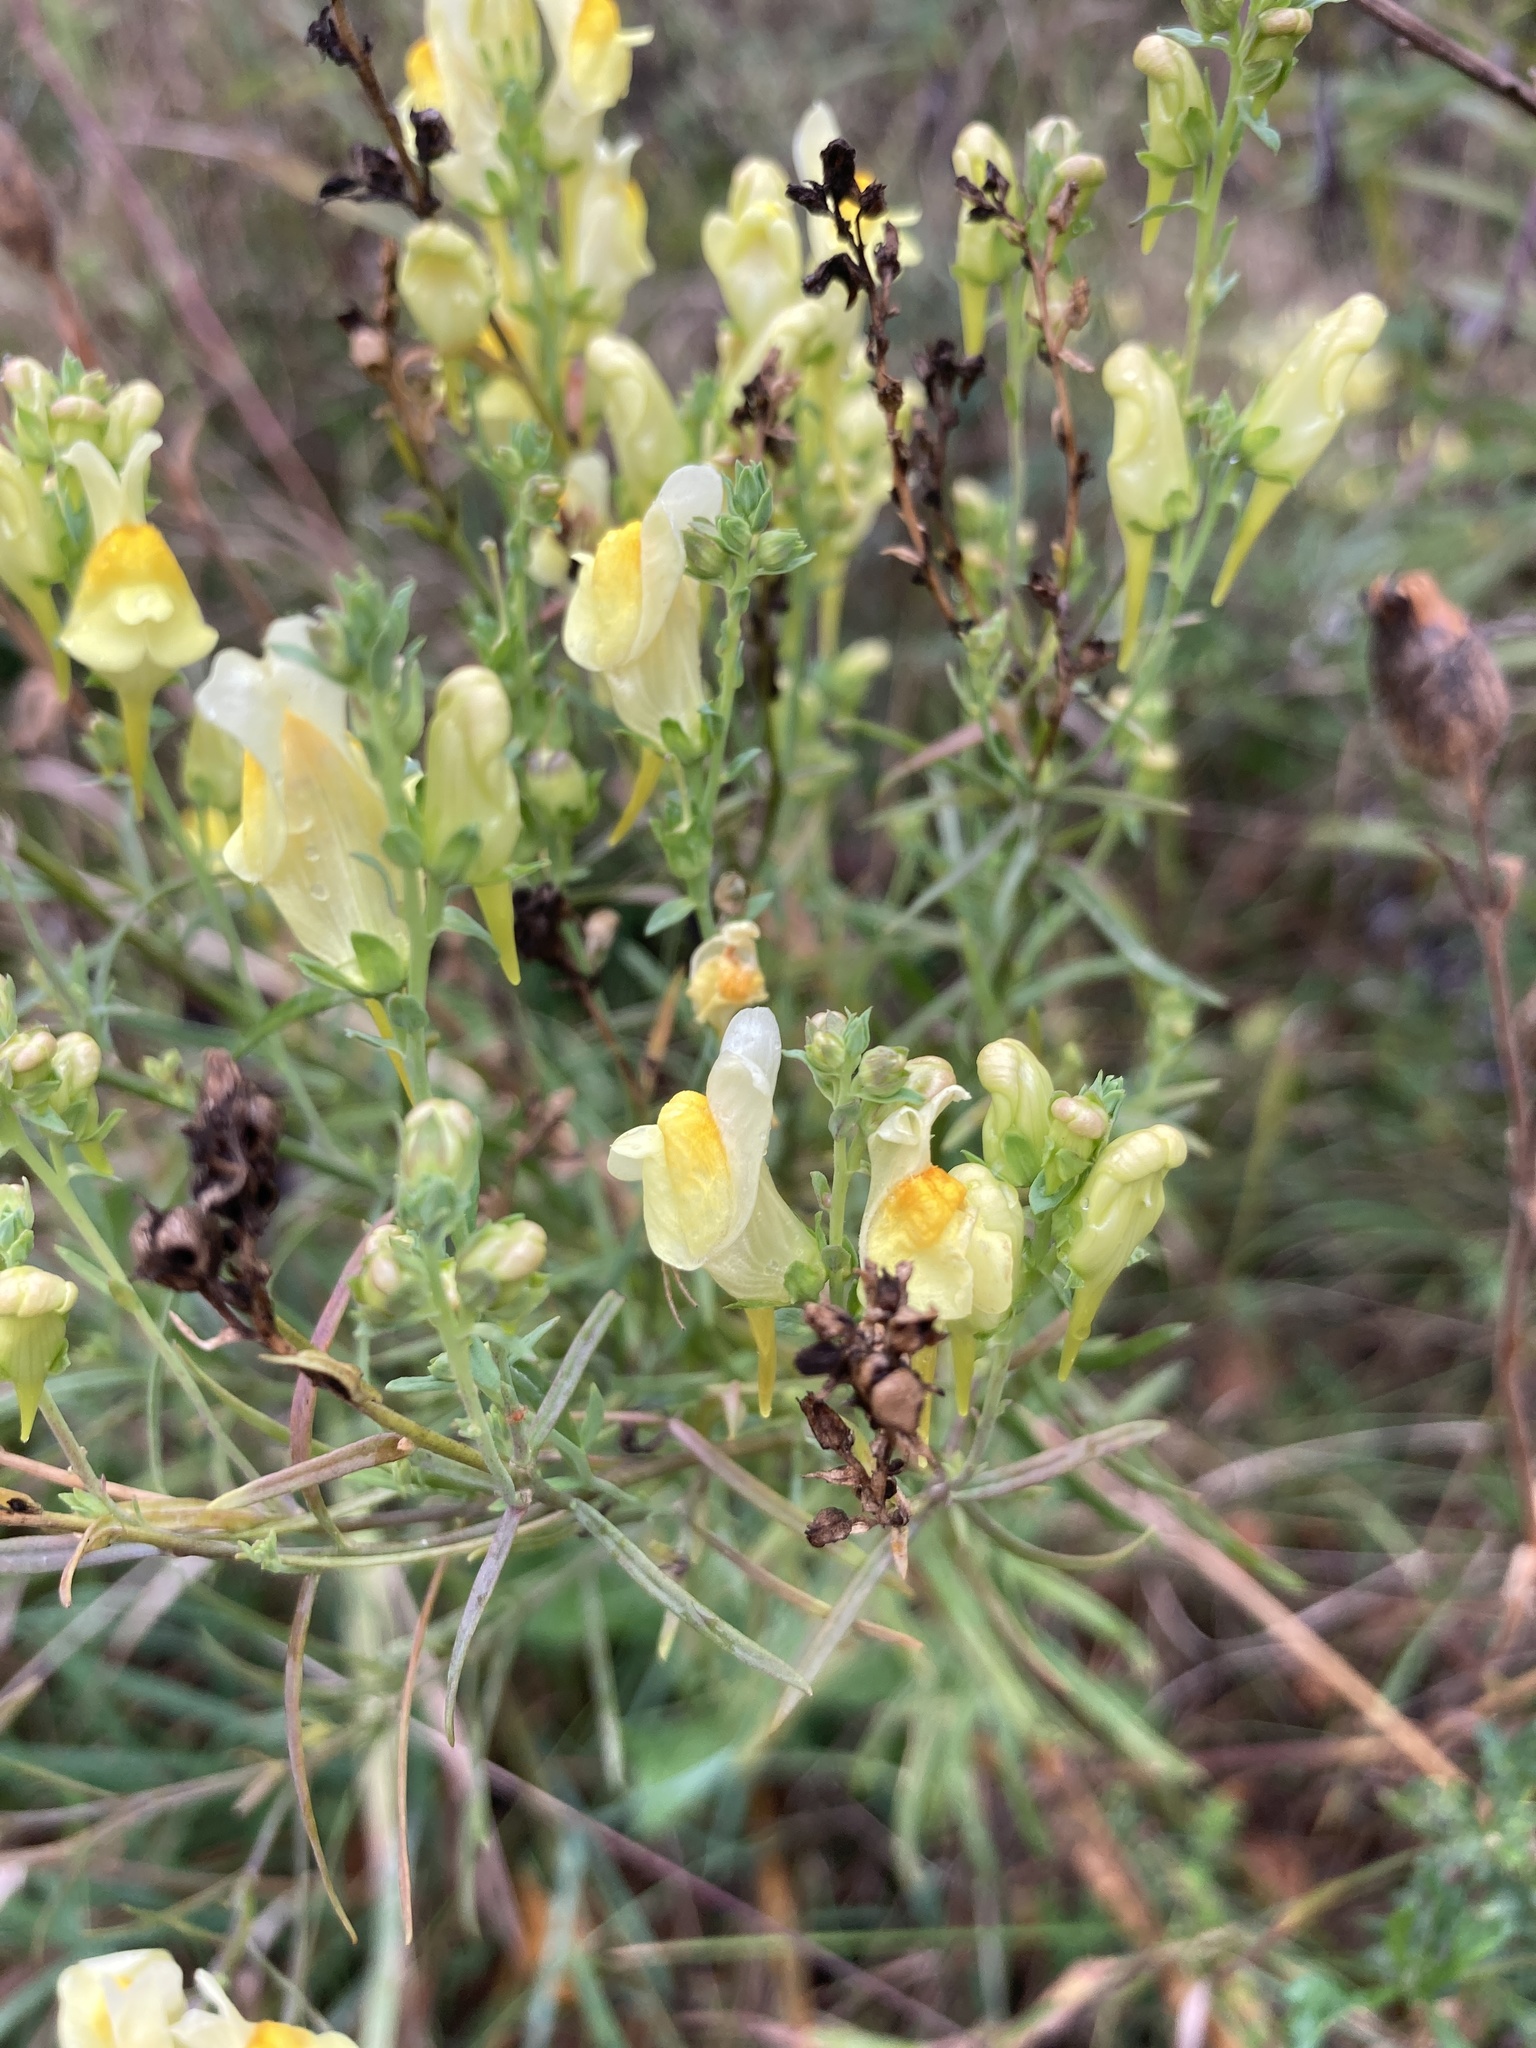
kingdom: Plantae
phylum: Tracheophyta
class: Magnoliopsida
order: Lamiales
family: Plantaginaceae
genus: Linaria
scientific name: Linaria vulgaris
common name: Butter and eggs
